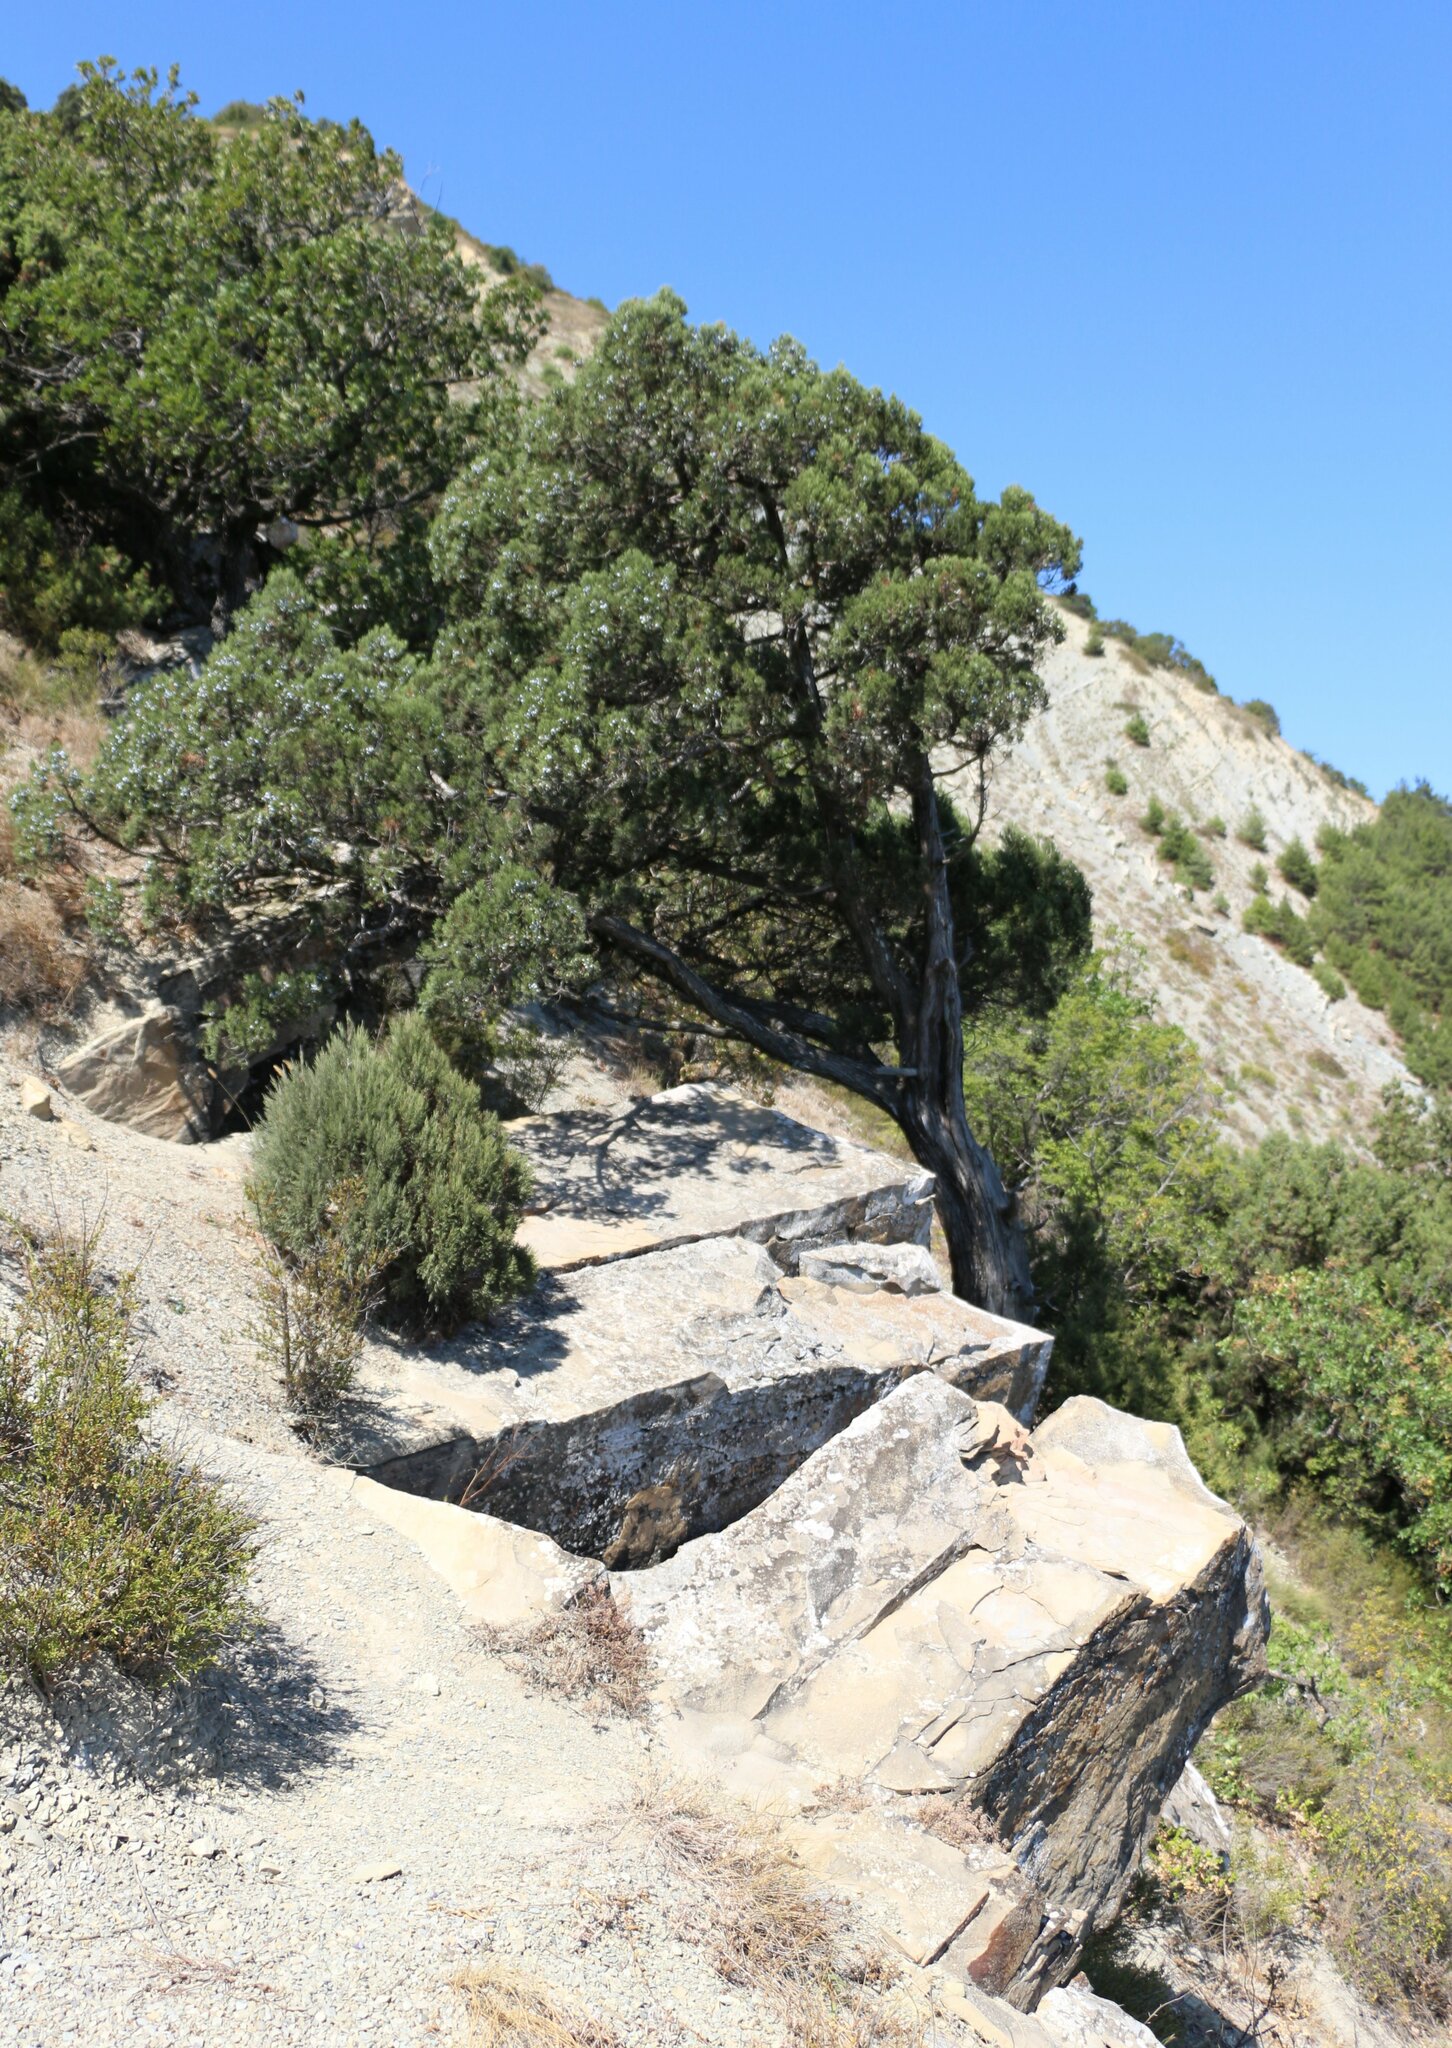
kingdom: Plantae
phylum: Tracheophyta
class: Pinopsida
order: Pinales
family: Cupressaceae
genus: Juniperus
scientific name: Juniperus excelsa
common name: Crimean juniper
